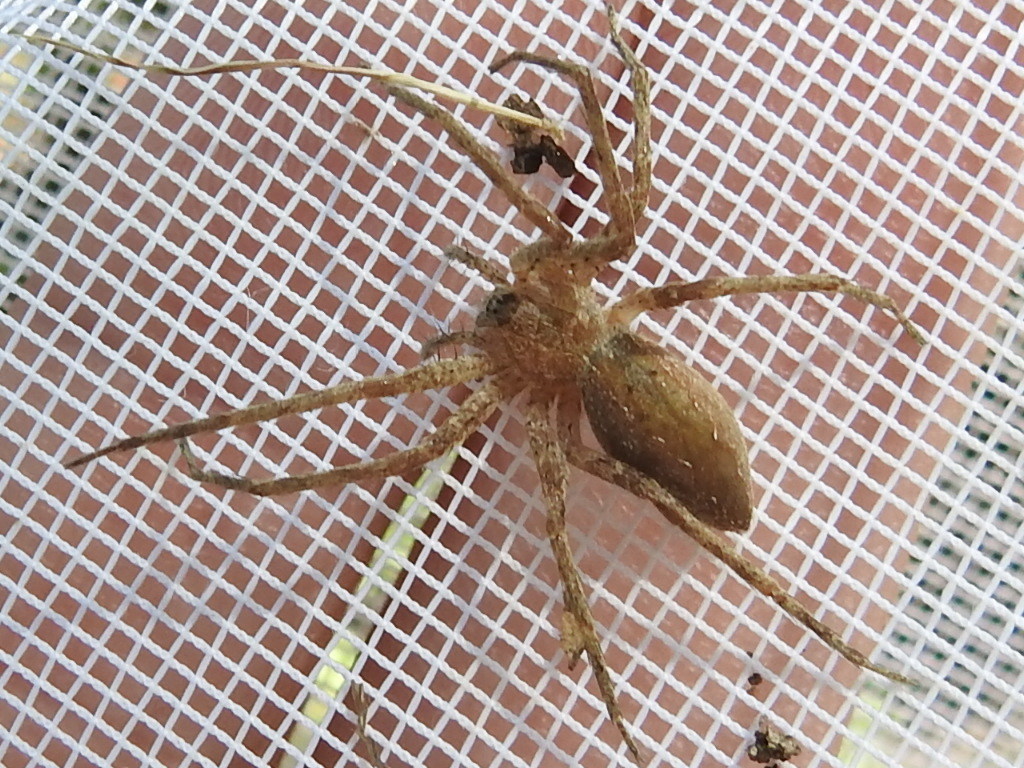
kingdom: Animalia
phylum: Arthropoda
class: Arachnida
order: Araneae
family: Pisauridae
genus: Pisaurina
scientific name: Pisaurina mira
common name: American nursery web spider
